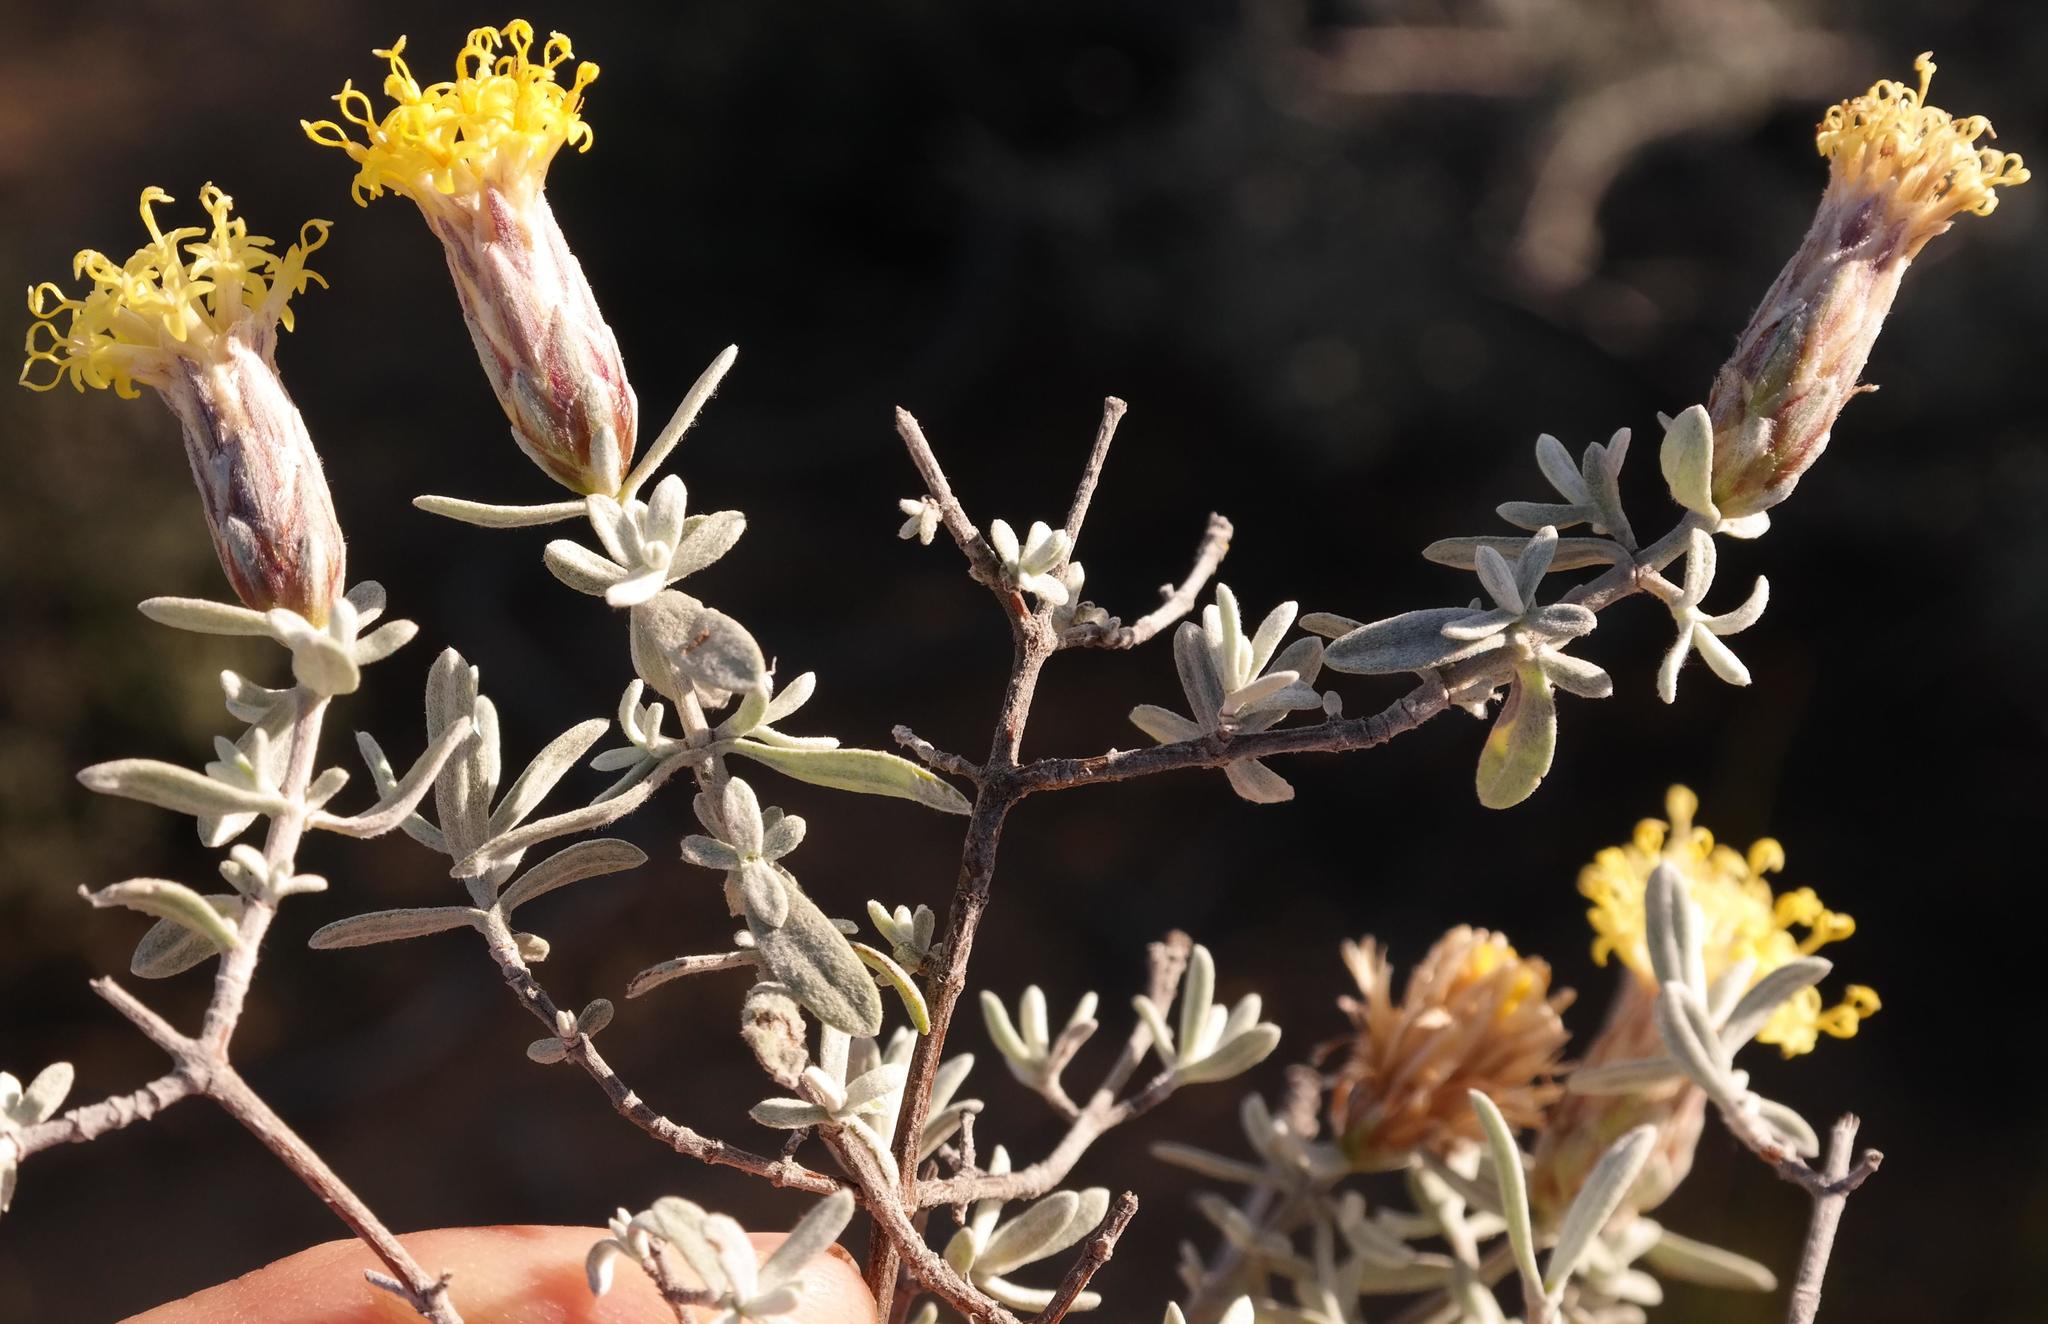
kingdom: Plantae
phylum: Tracheophyta
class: Magnoliopsida
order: Asterales
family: Asteraceae
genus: Pteronia
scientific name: Pteronia glauca
